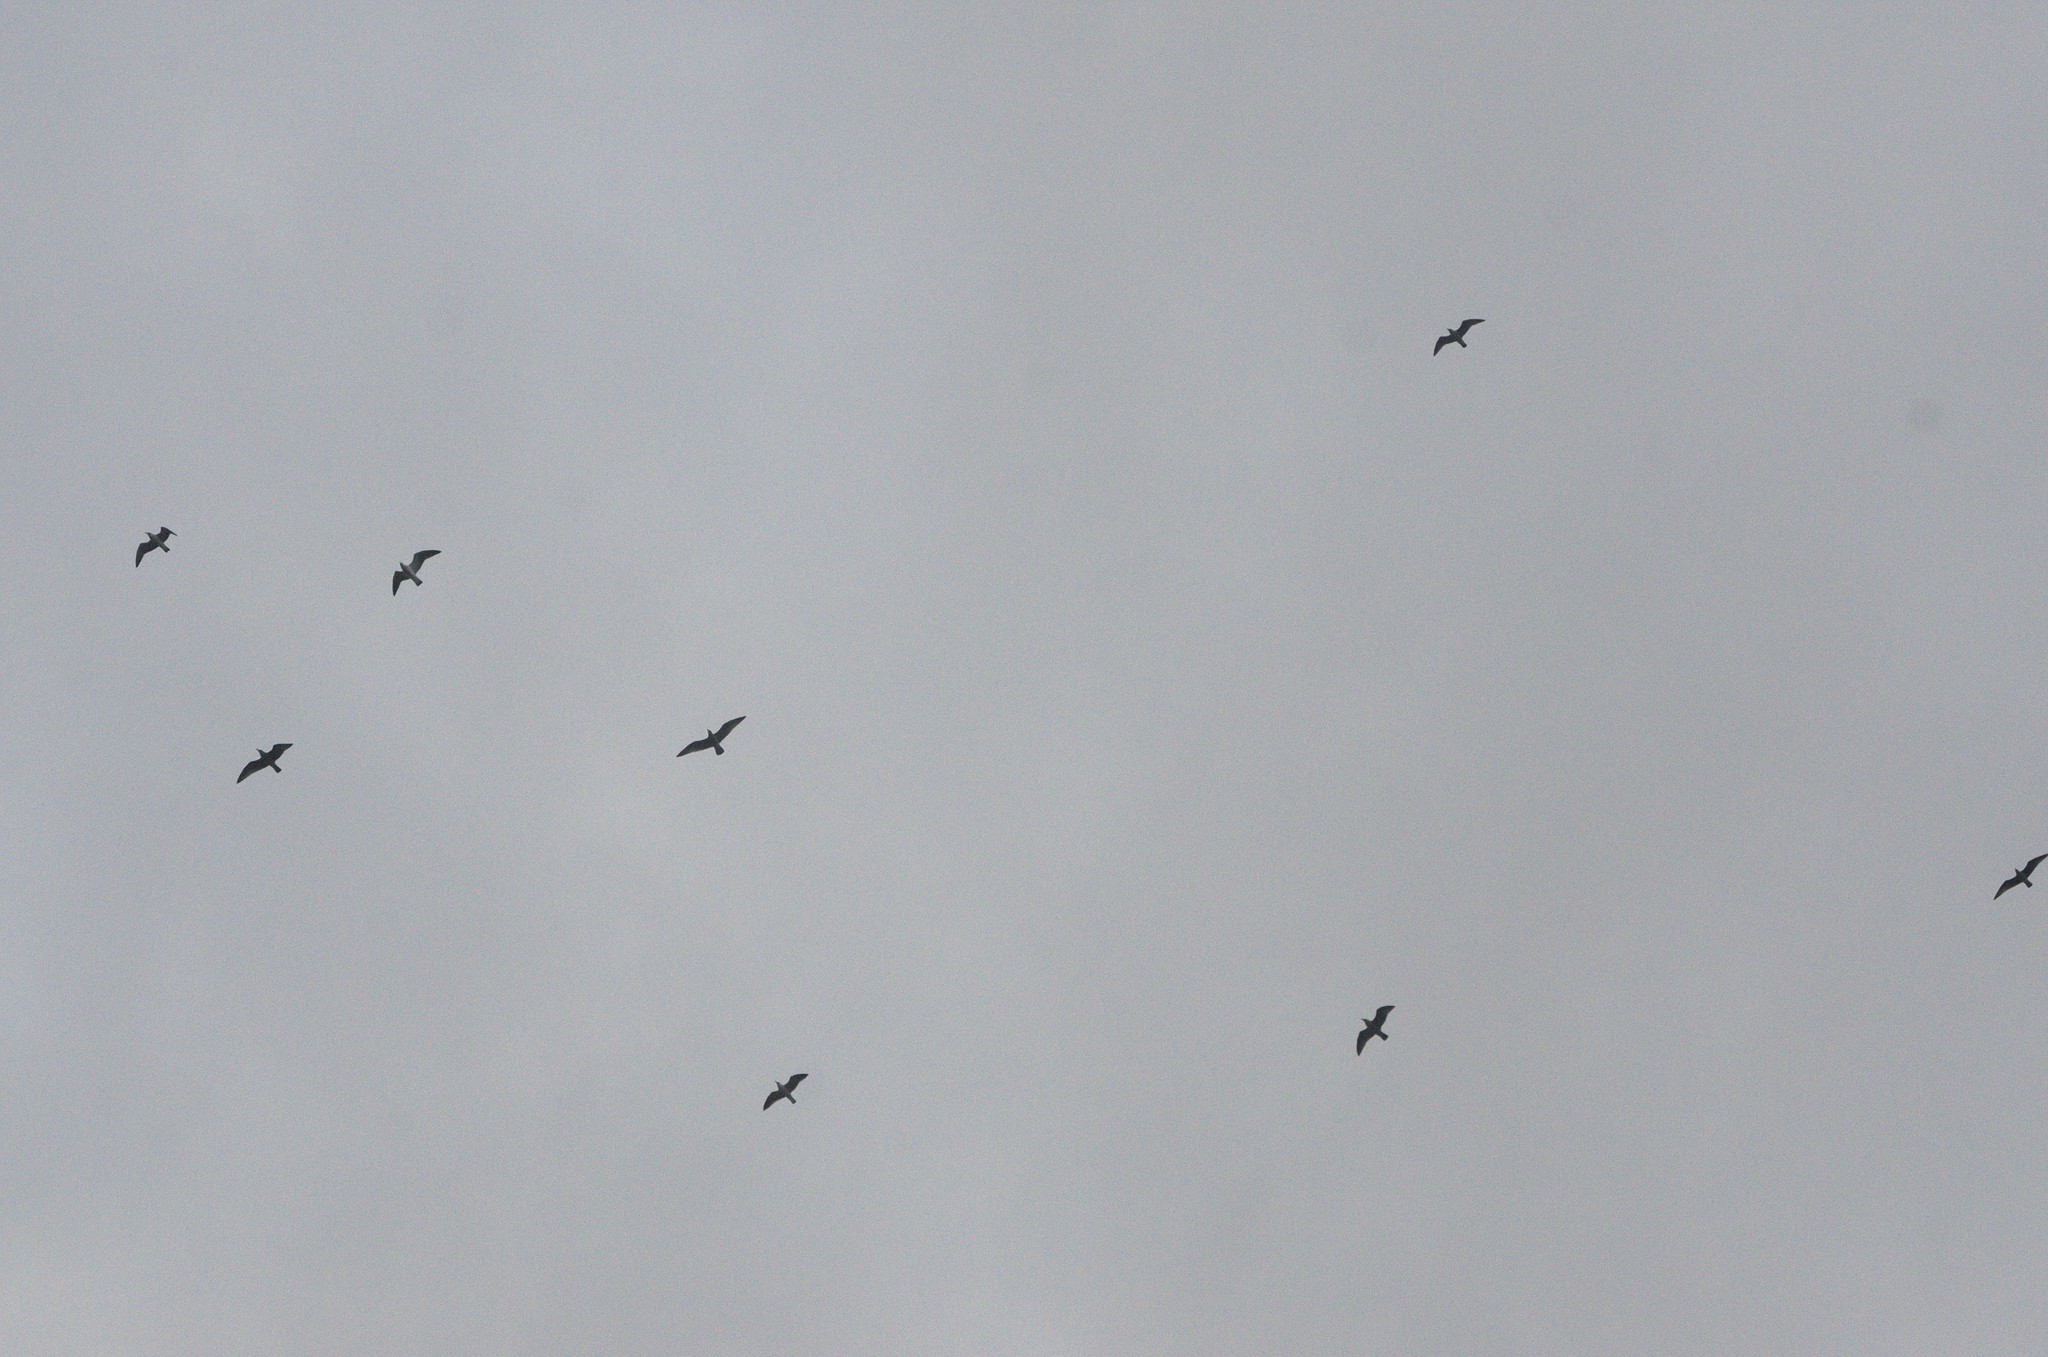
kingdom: Animalia
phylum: Chordata
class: Aves
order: Charadriiformes
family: Laridae
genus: Larus
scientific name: Larus dominicanus
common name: Kelp gull
